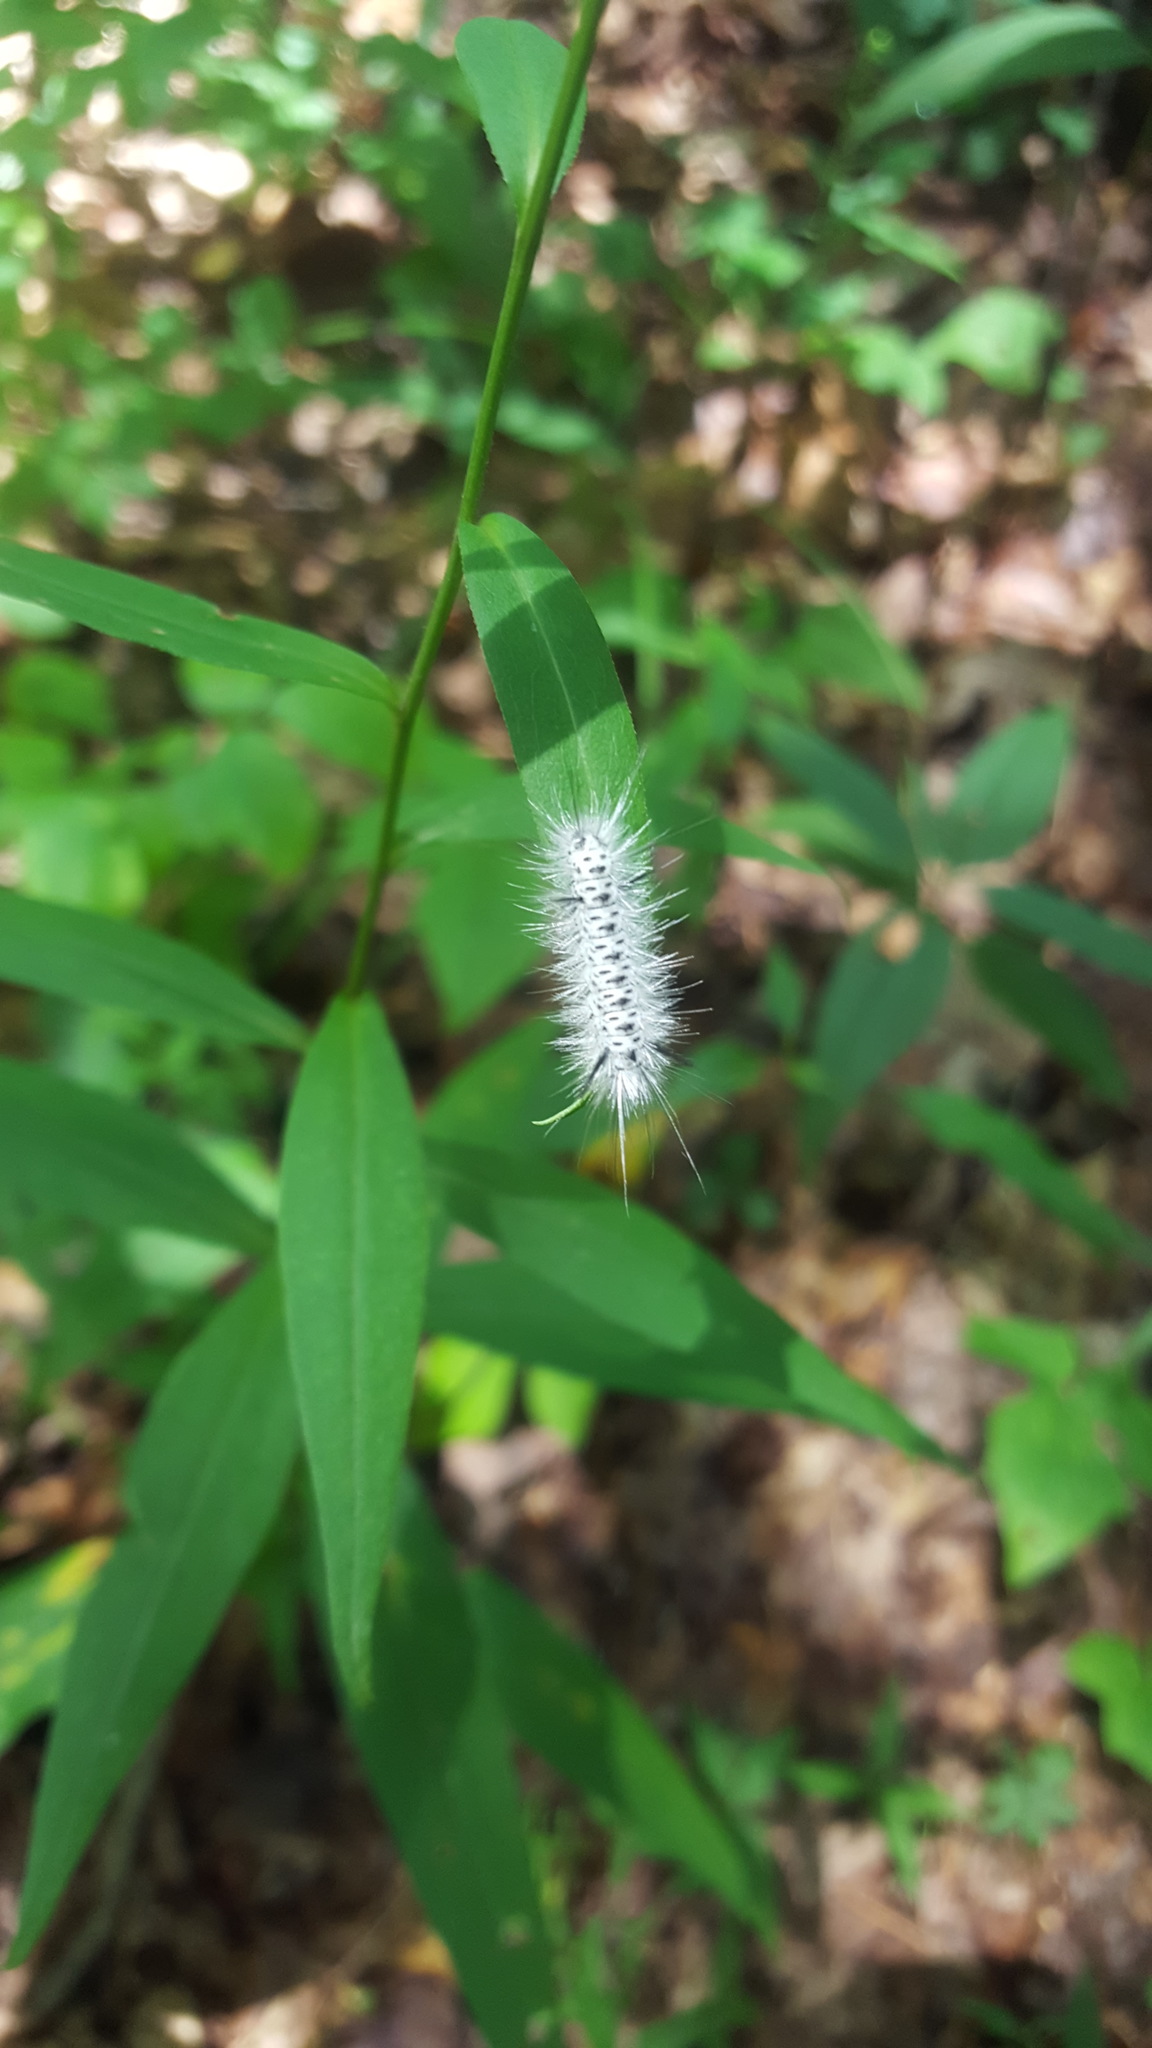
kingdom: Animalia
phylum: Arthropoda
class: Insecta
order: Lepidoptera
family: Erebidae
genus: Lophocampa
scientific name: Lophocampa caryae
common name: Hickory tussock moth
